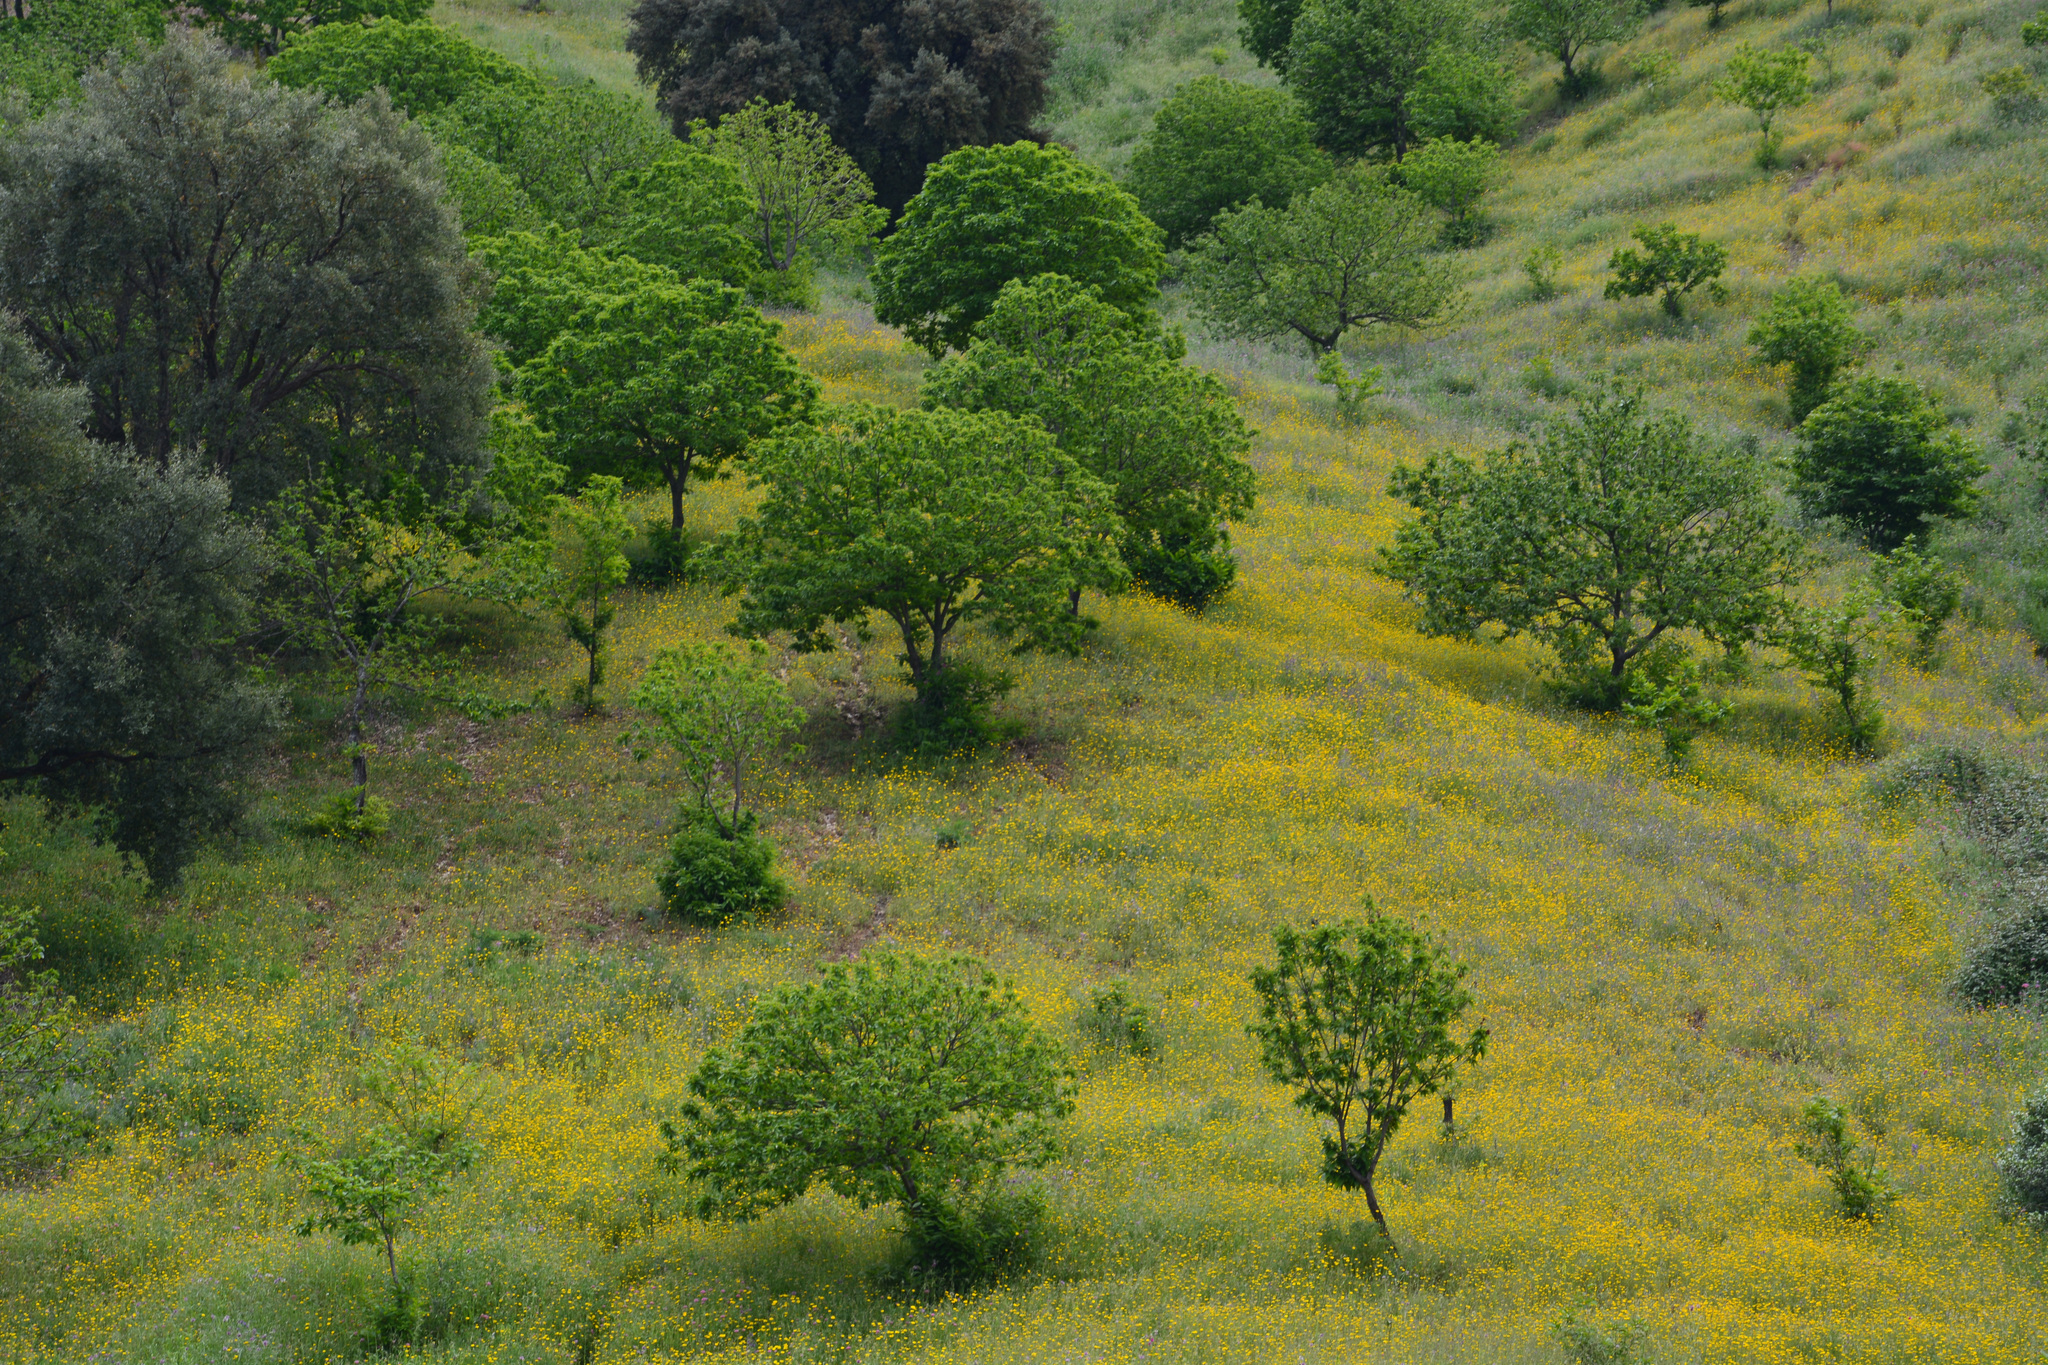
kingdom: Plantae
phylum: Tracheophyta
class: Magnoliopsida
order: Fagales
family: Fagaceae
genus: Castanea
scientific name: Castanea sativa
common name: Sweet chestnut
